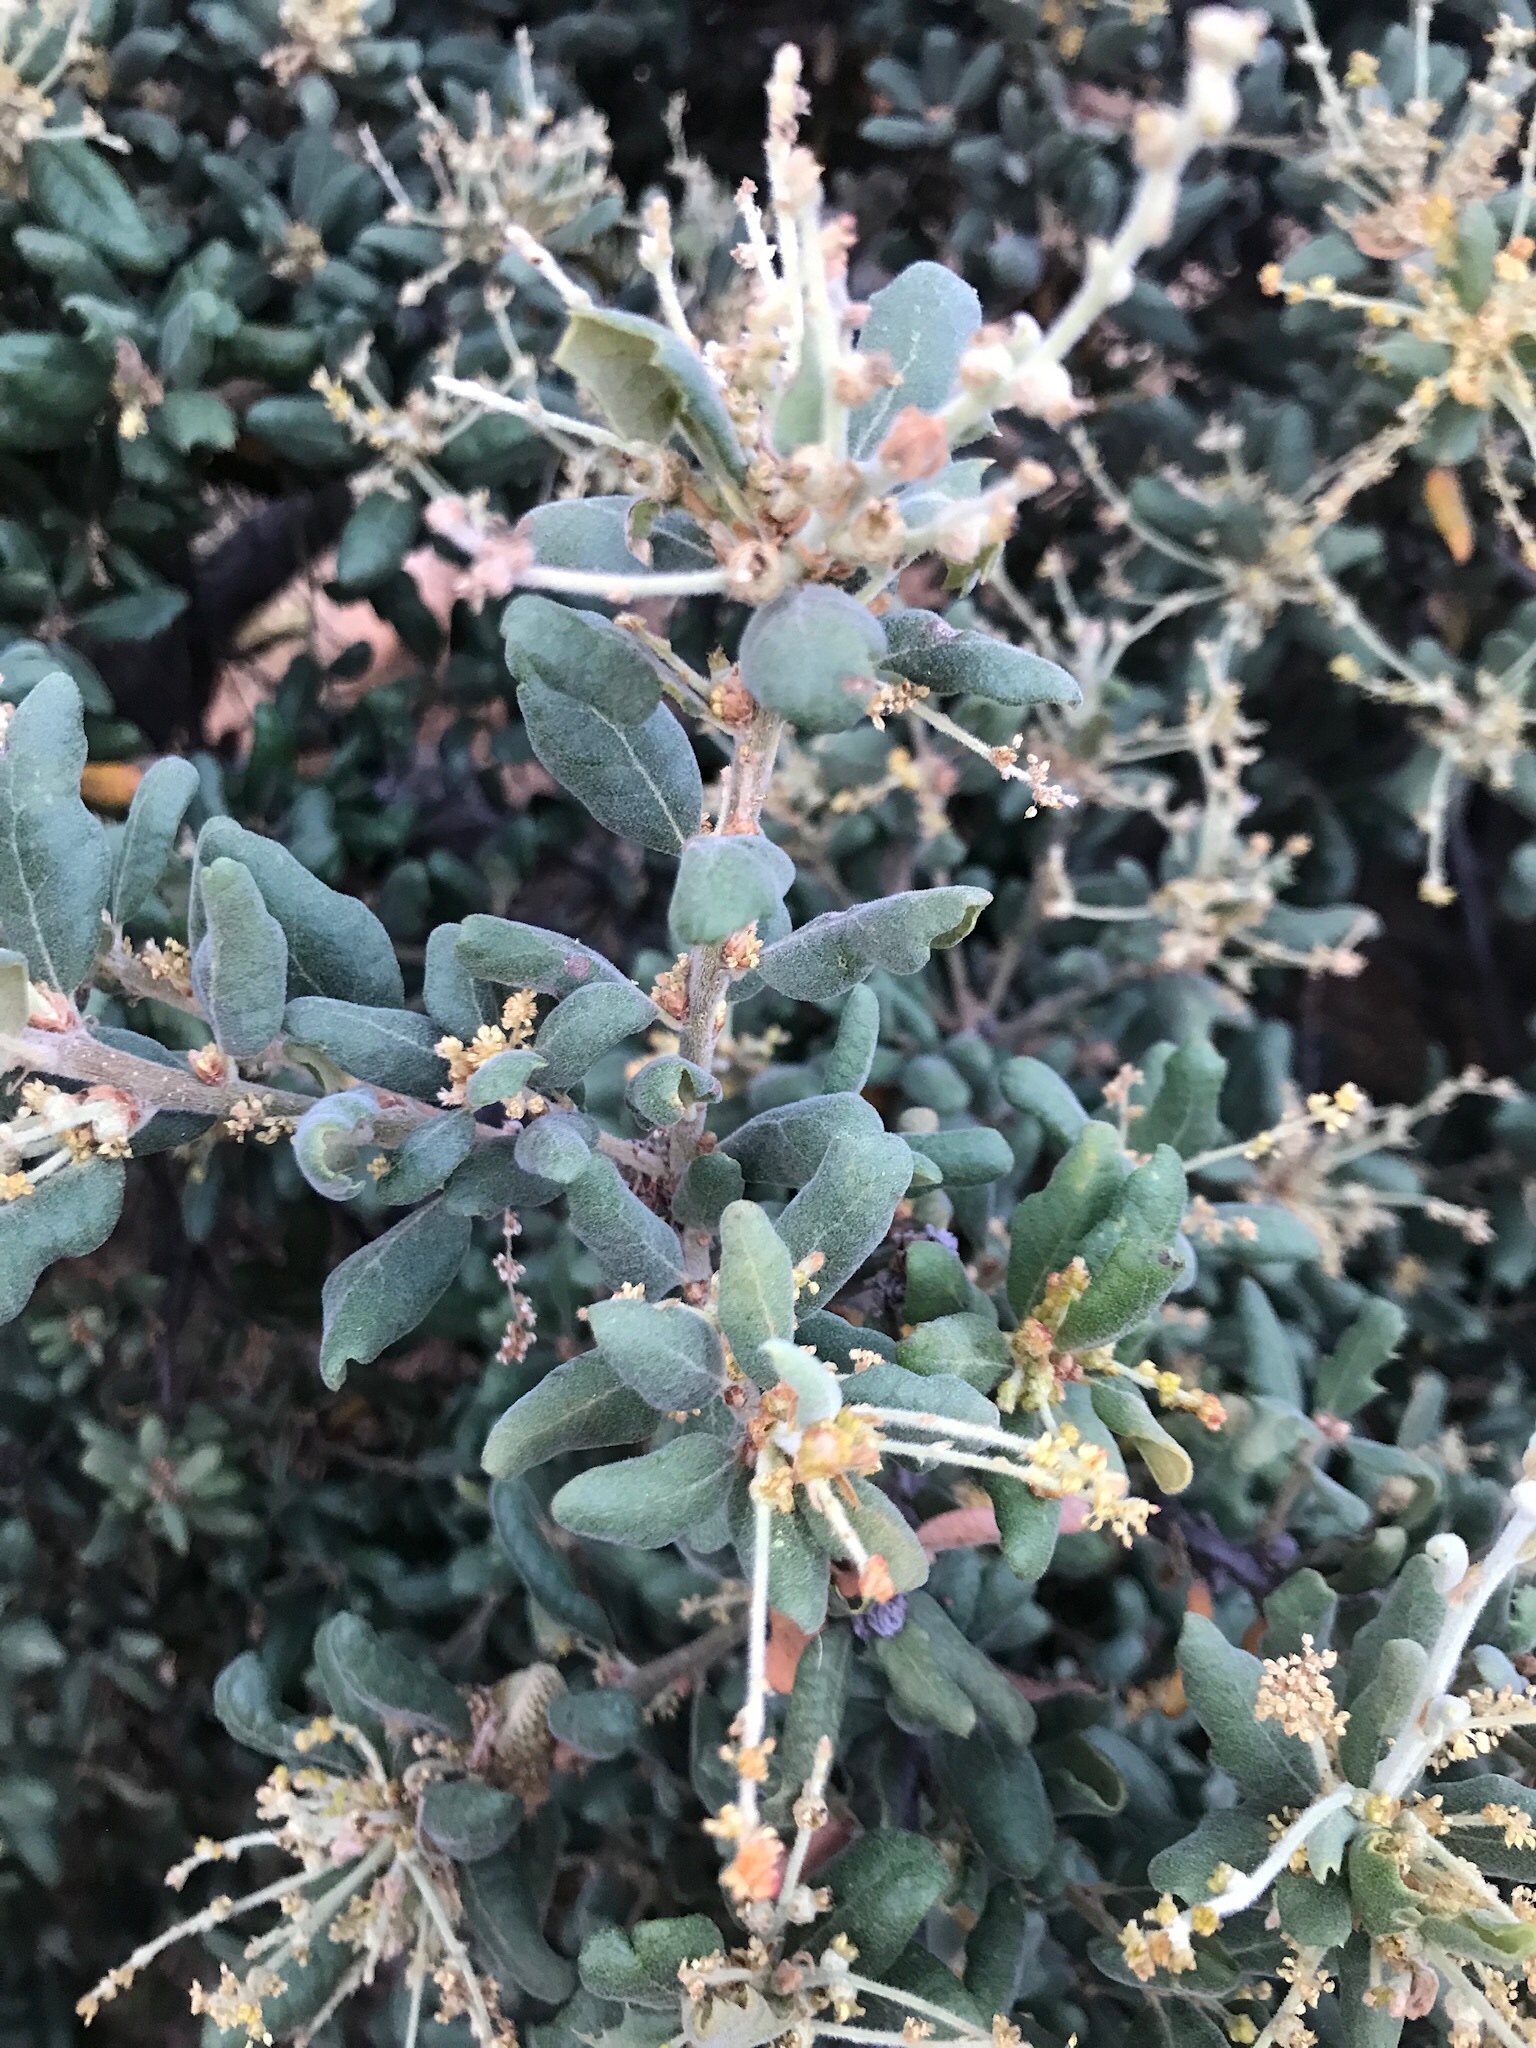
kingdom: Plantae
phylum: Tracheophyta
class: Magnoliopsida
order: Fagales
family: Fagaceae
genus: Quercus
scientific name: Quercus durata
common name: Leather oak
